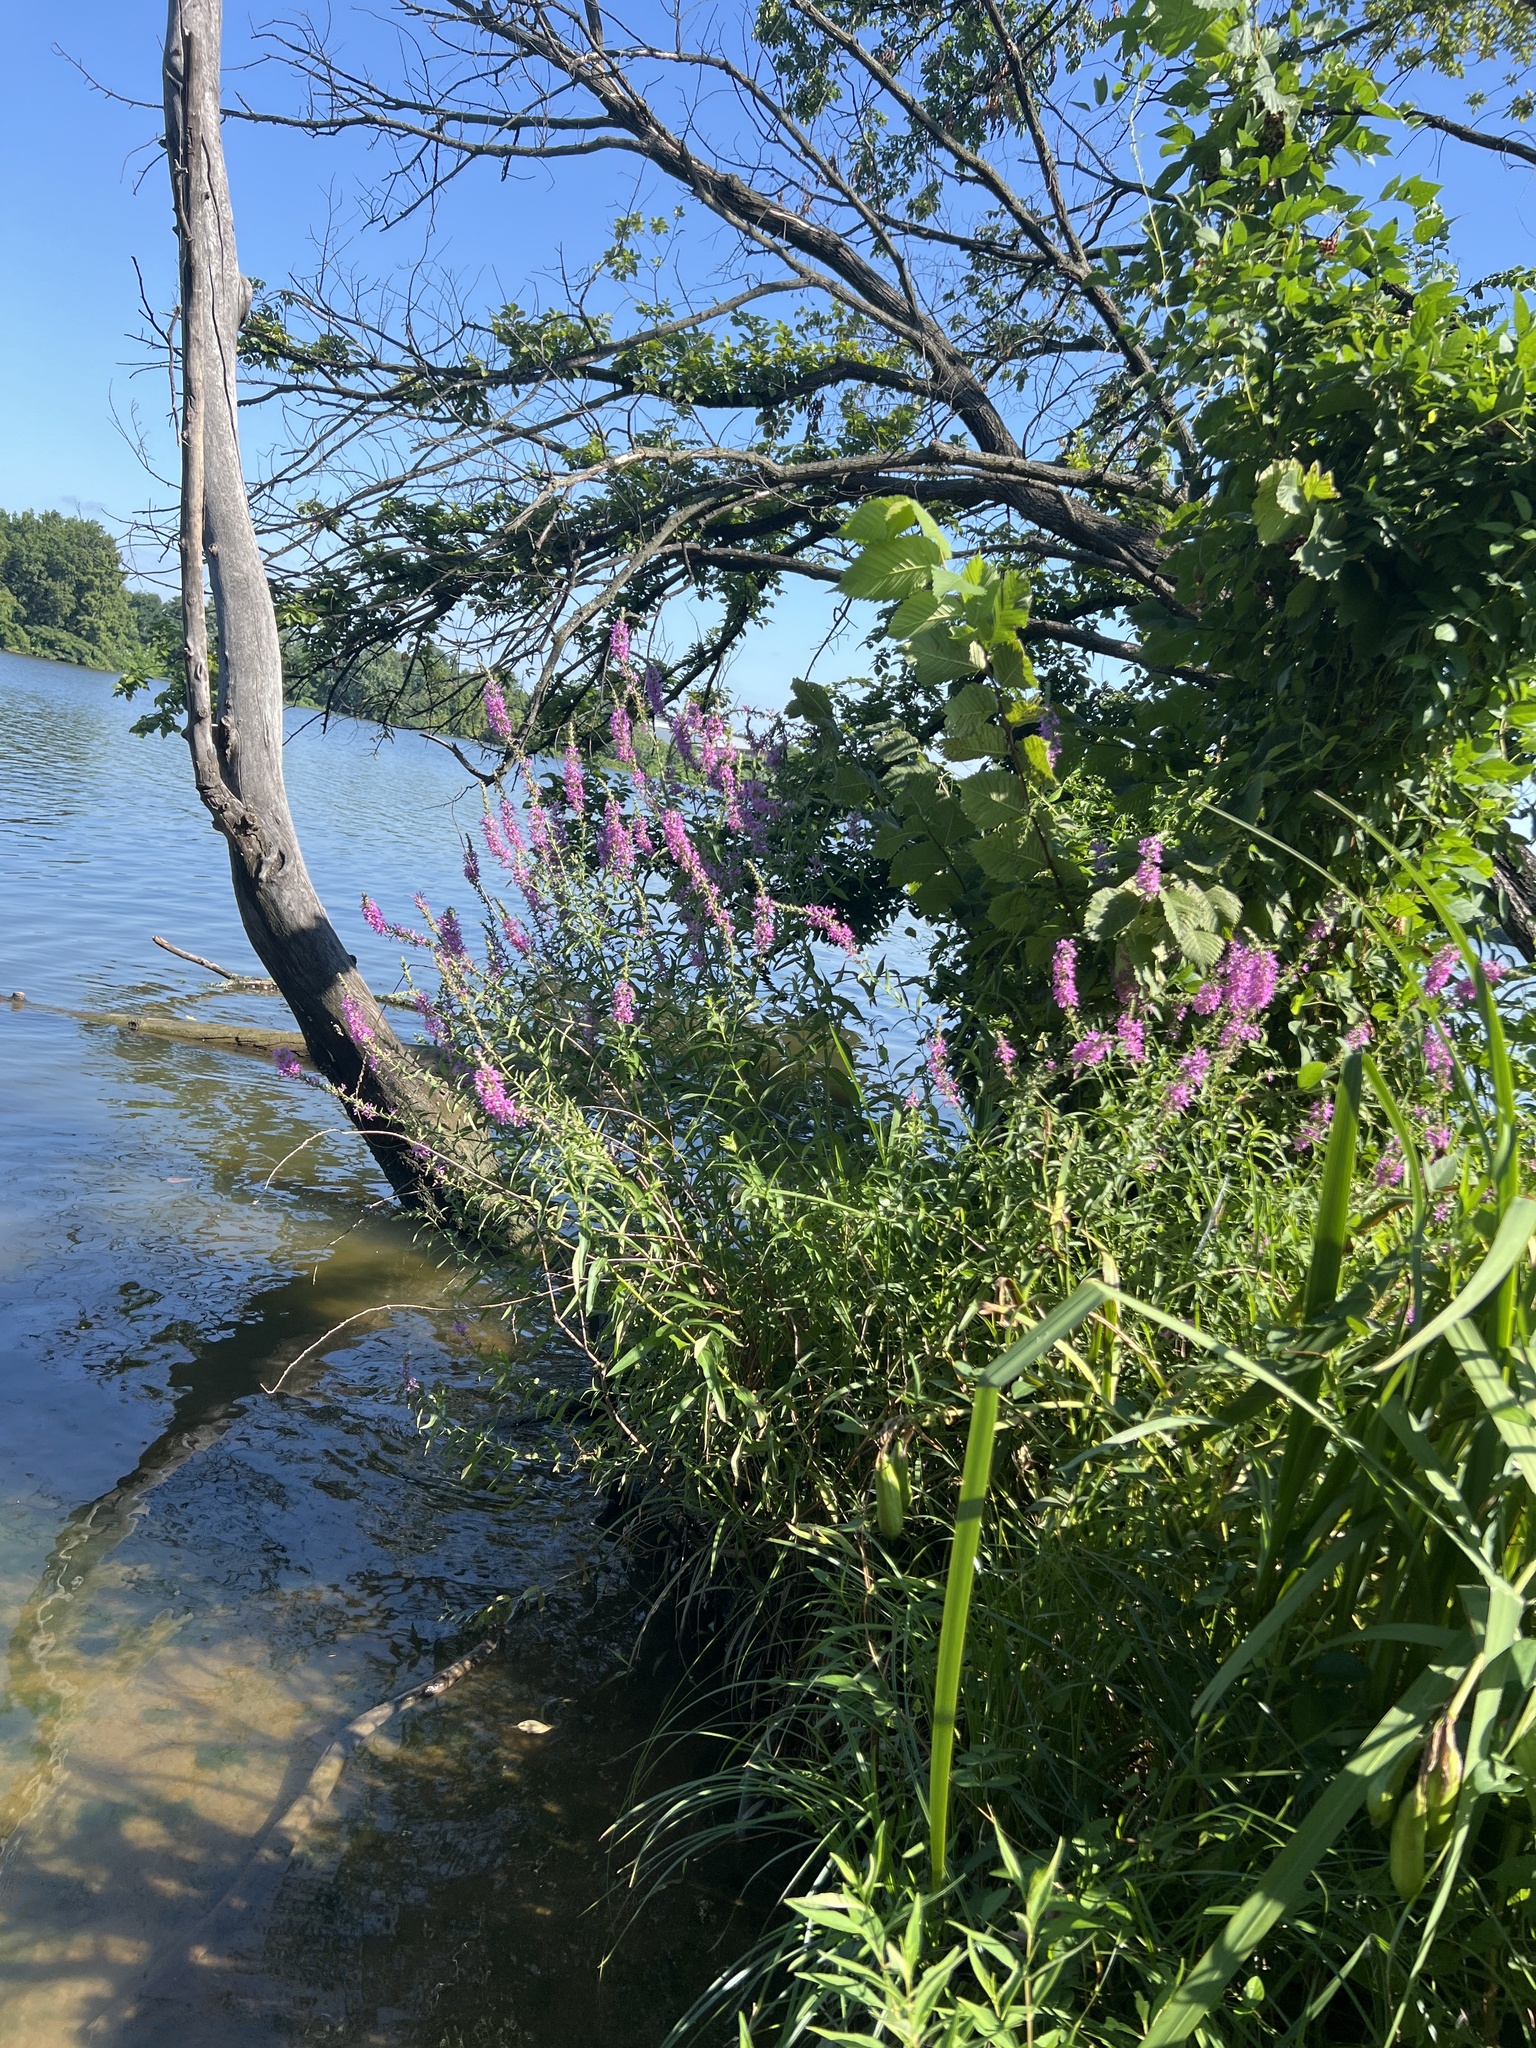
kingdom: Plantae
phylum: Tracheophyta
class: Magnoliopsida
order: Myrtales
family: Lythraceae
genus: Lythrum
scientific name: Lythrum salicaria
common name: Purple loosestrife
